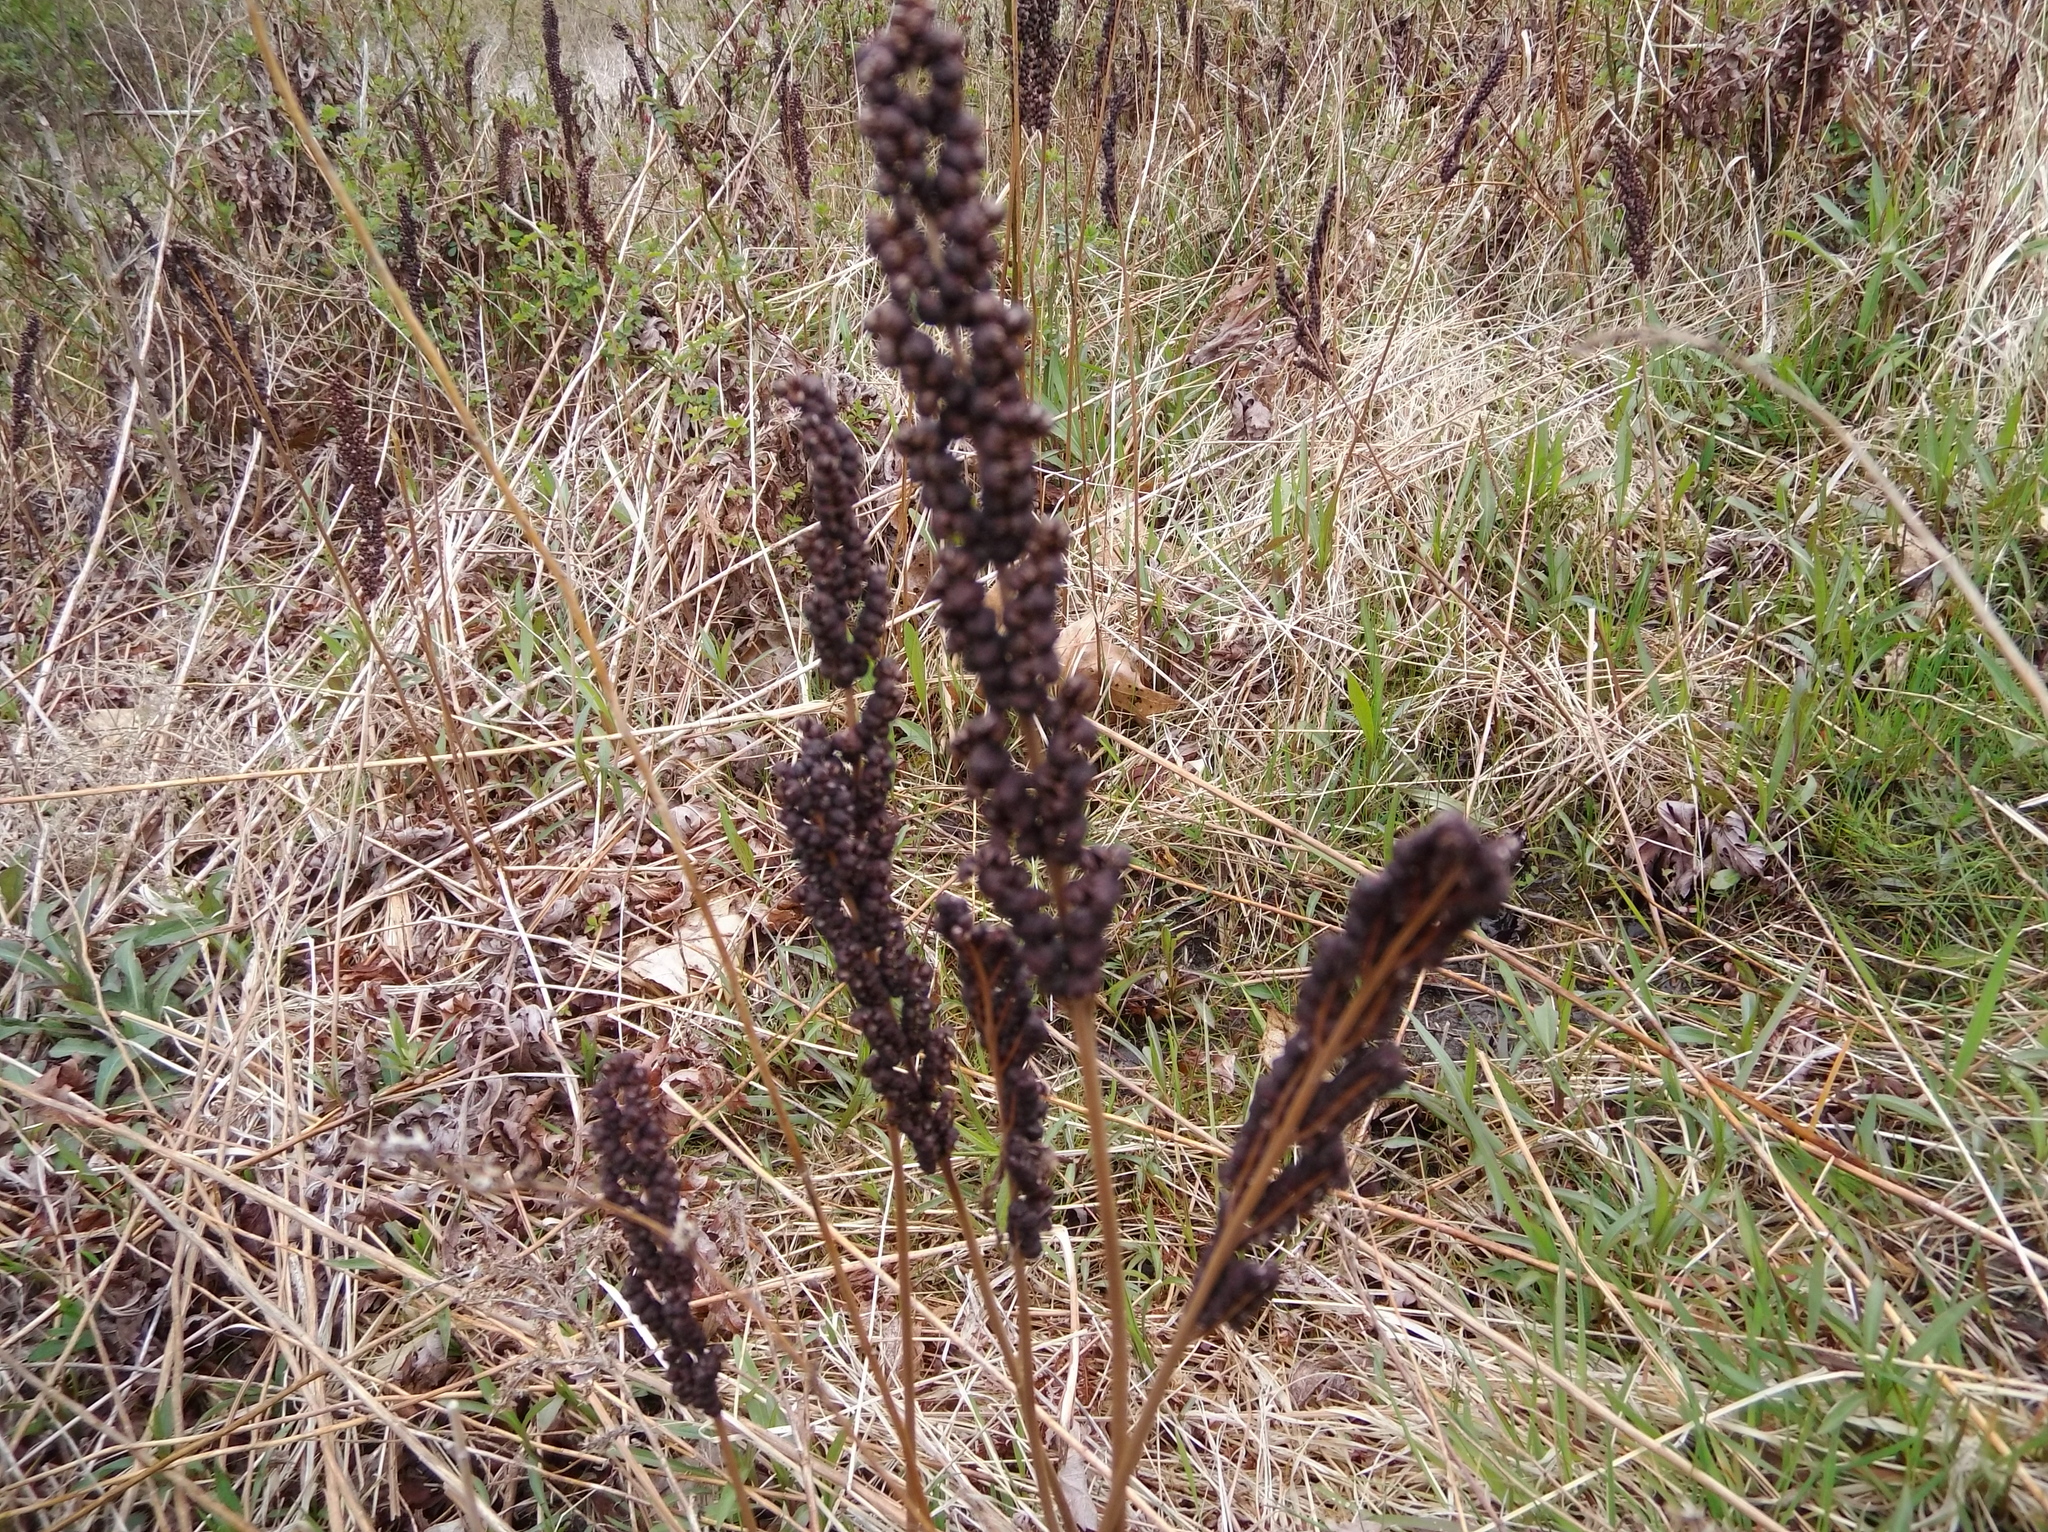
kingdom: Plantae
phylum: Tracheophyta
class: Polypodiopsida
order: Polypodiales
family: Onocleaceae
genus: Onoclea
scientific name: Onoclea sensibilis
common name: Sensitive fern
